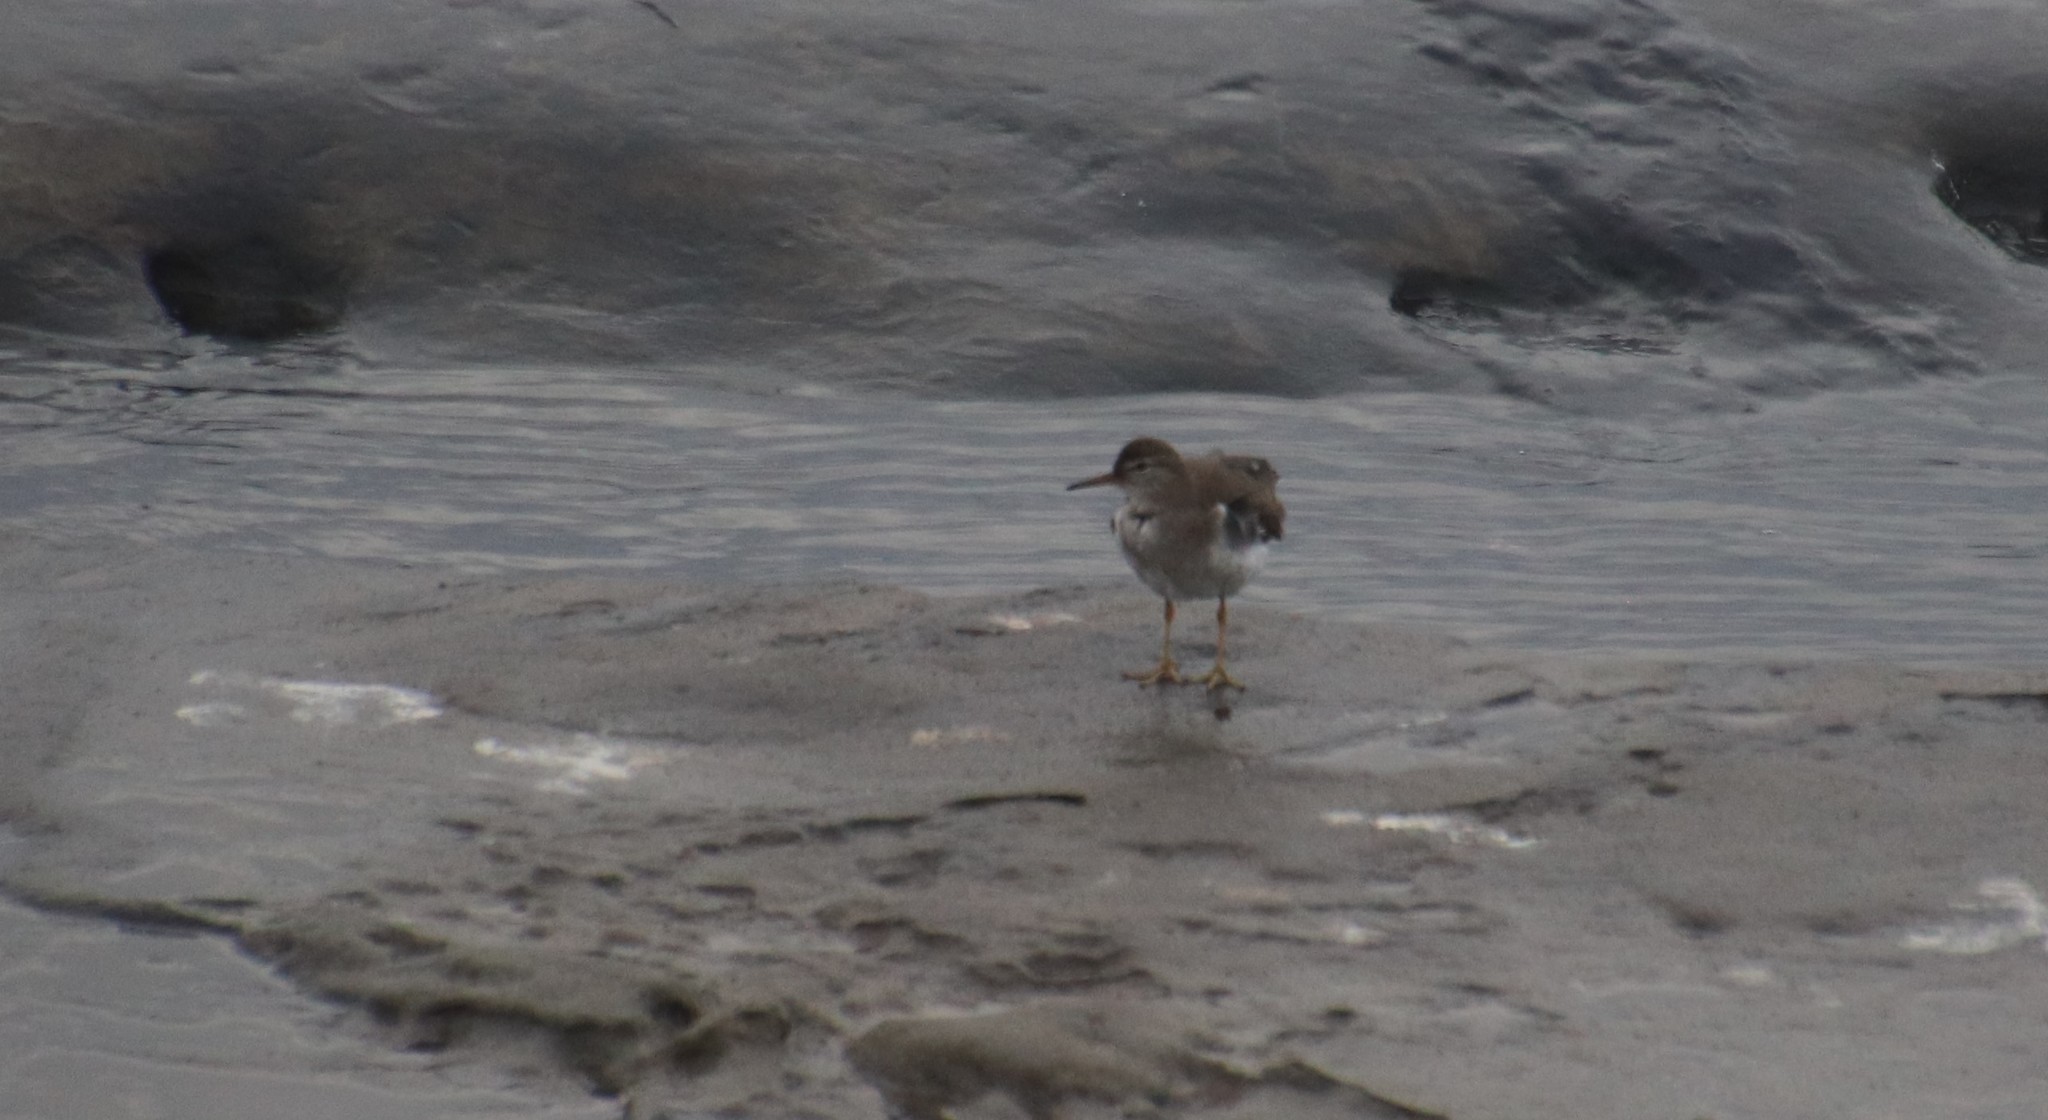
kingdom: Animalia
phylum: Chordata
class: Aves
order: Charadriiformes
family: Scolopacidae
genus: Actitis
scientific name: Actitis macularius
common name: Spotted sandpiper
